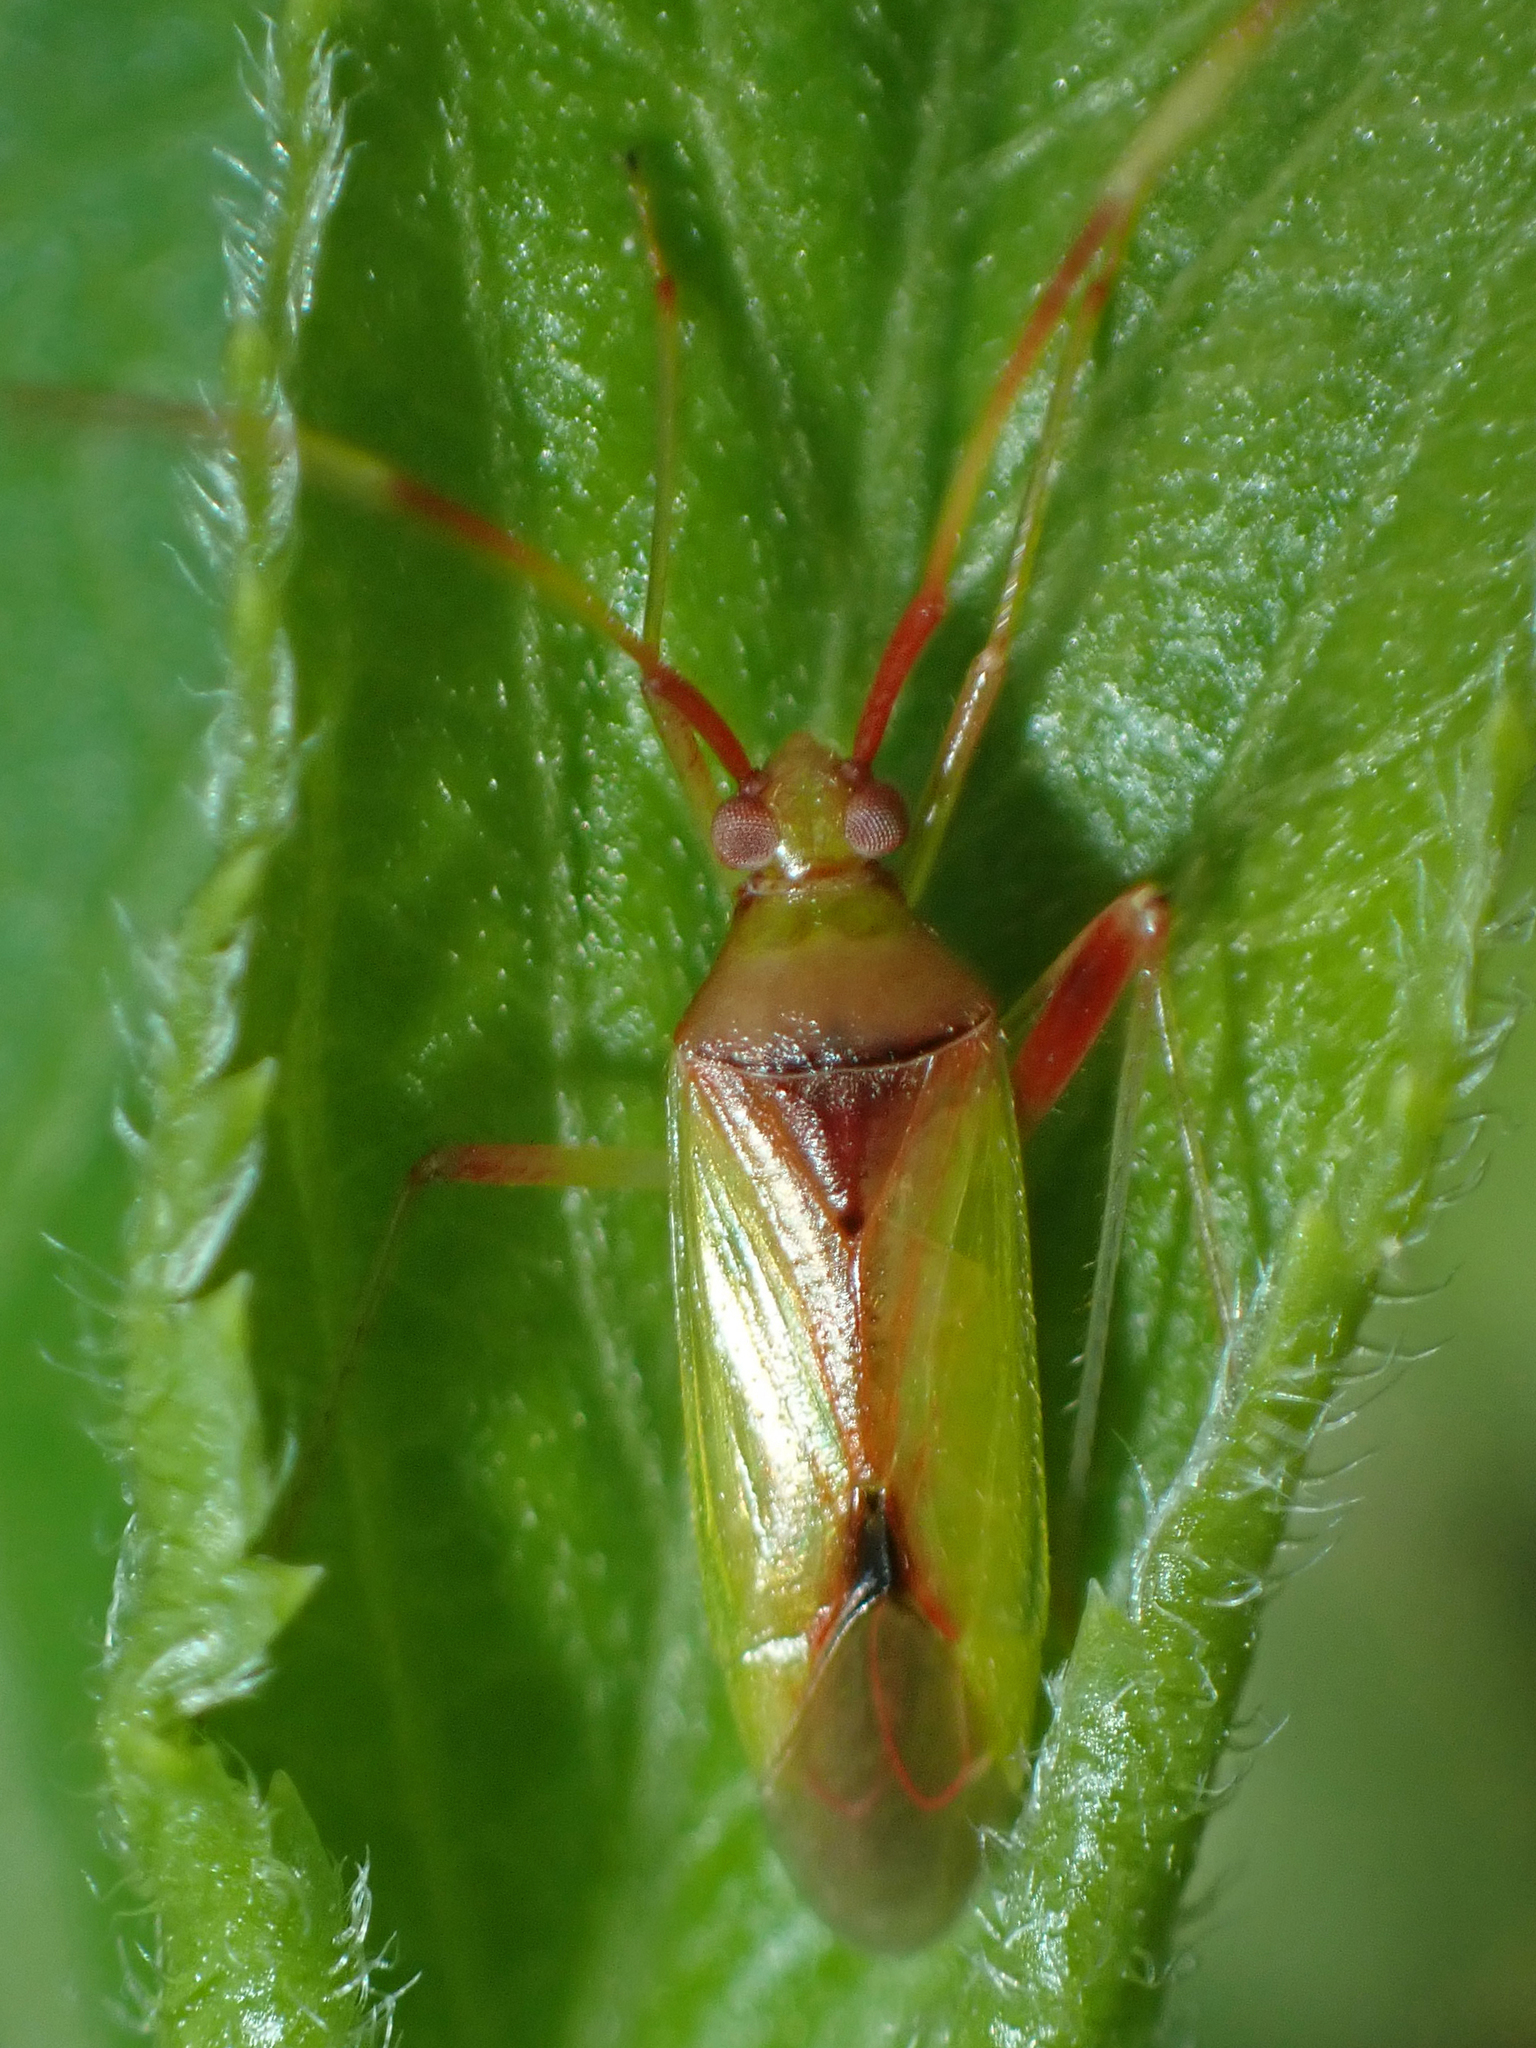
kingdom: Animalia
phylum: Arthropoda
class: Insecta
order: Hemiptera
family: Miridae
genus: Creontiades
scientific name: Creontiades rubrinervis
